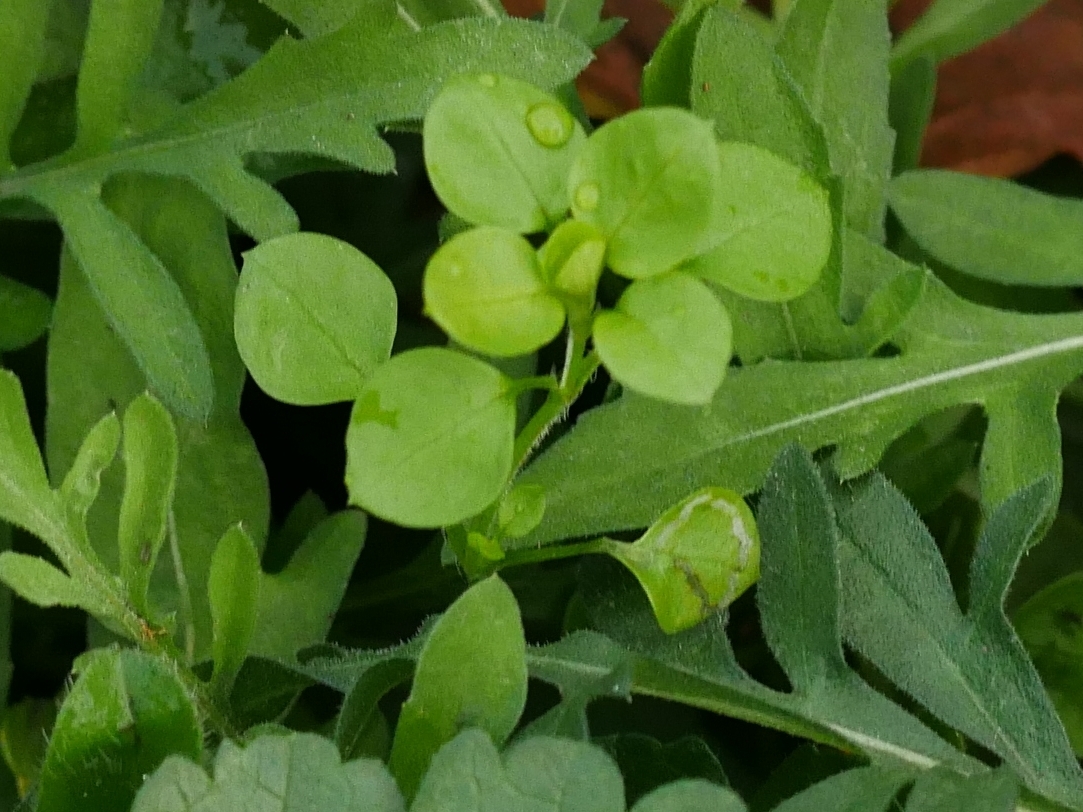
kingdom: Plantae
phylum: Tracheophyta
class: Magnoliopsida
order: Caryophyllales
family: Caryophyllaceae
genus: Stellaria
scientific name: Stellaria media
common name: Common chickweed
